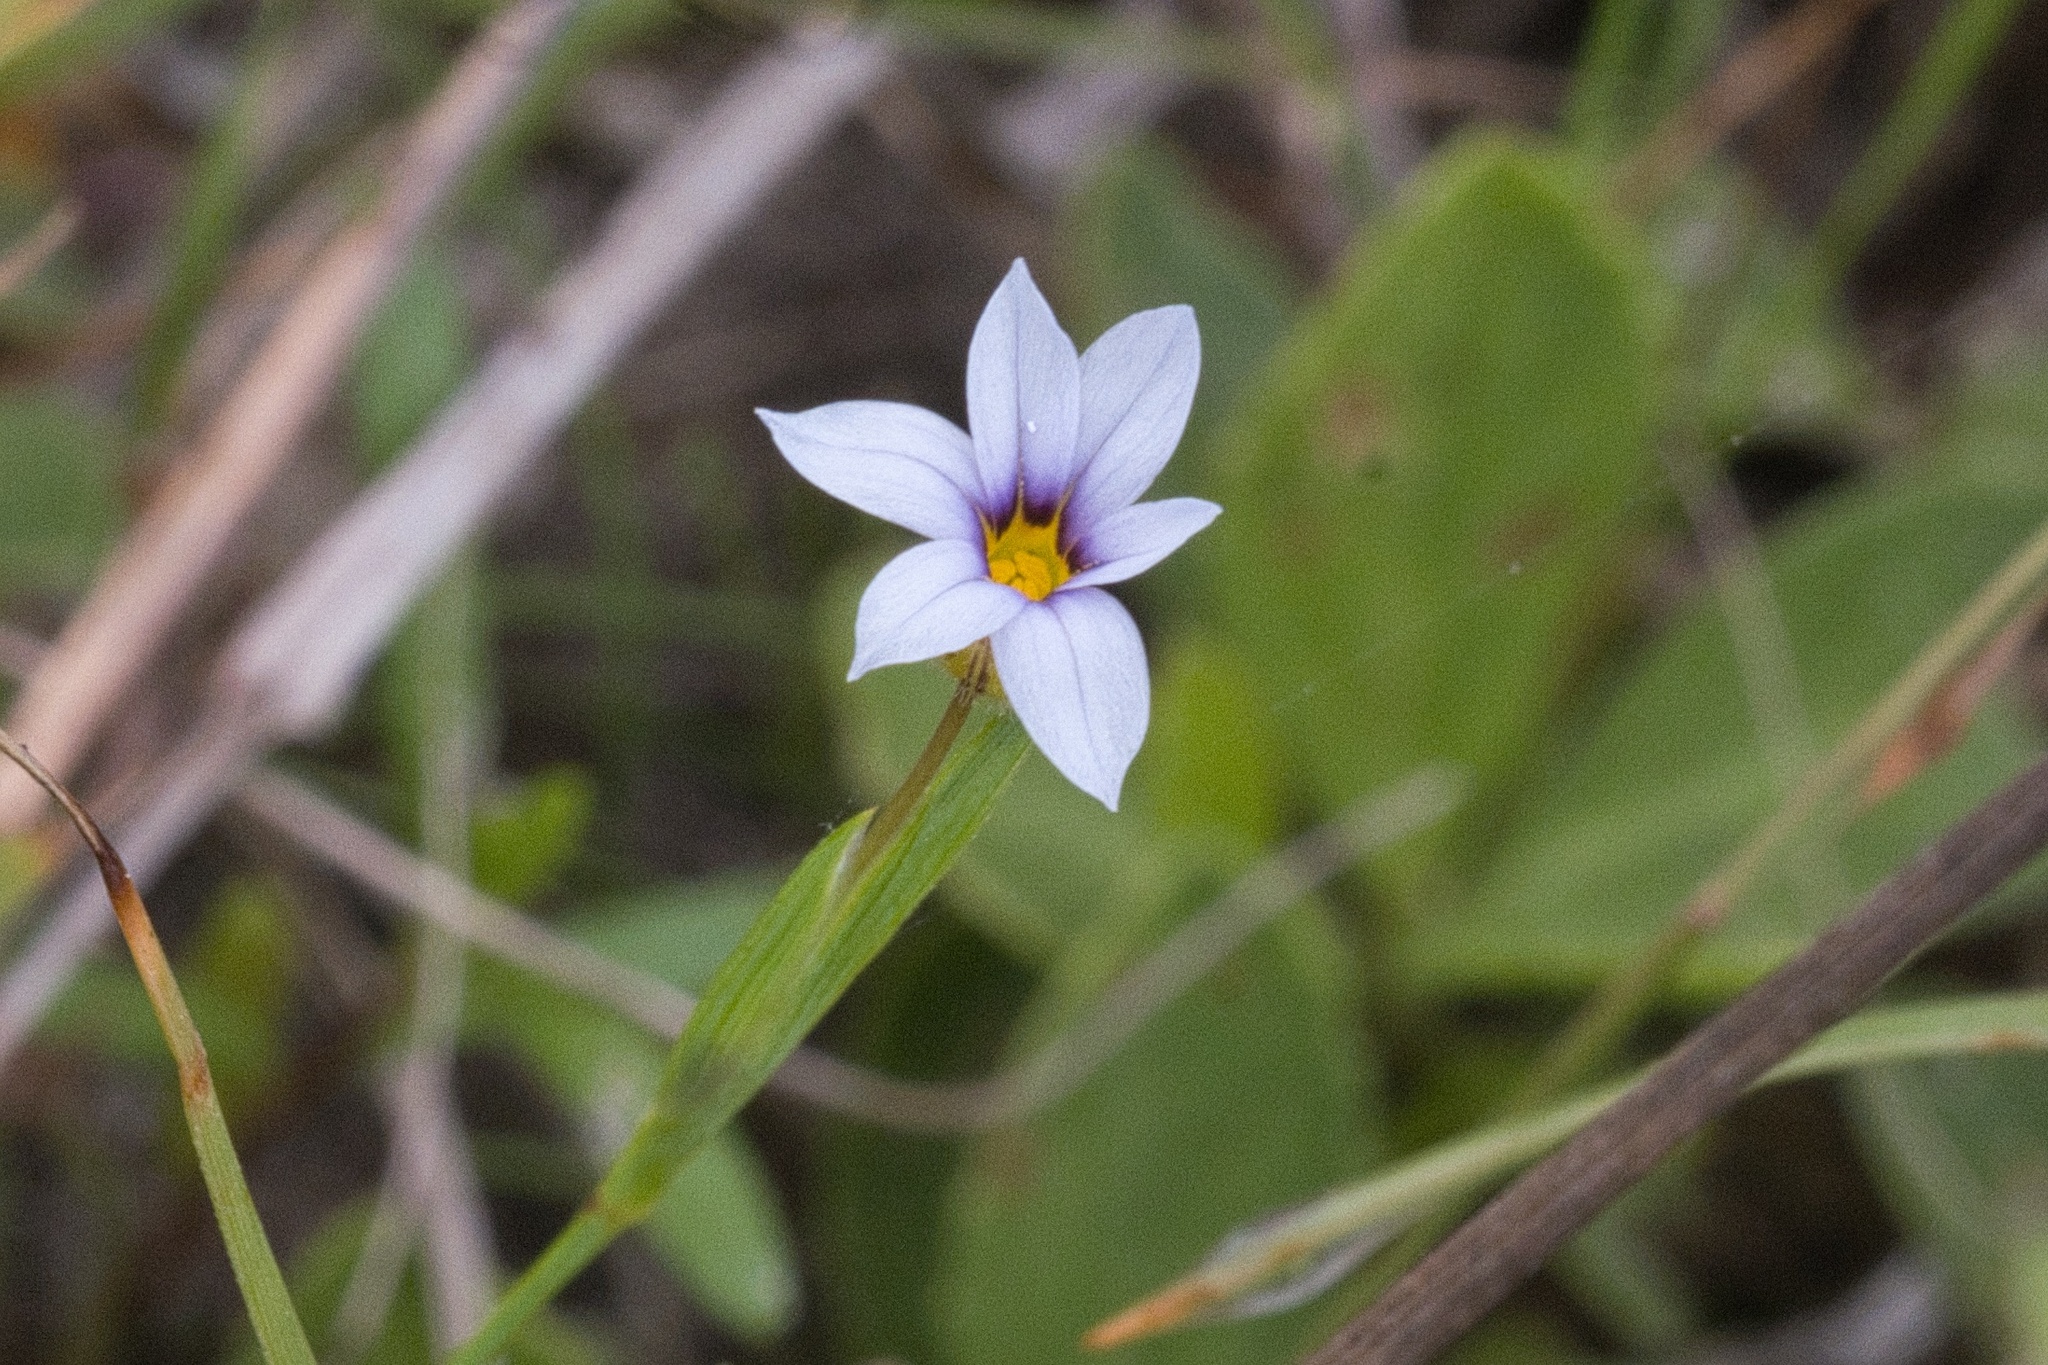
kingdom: Plantae
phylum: Tracheophyta
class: Liliopsida
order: Asparagales
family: Iridaceae
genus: Sisyrinchium
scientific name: Sisyrinchium micranthum
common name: Bermuda pigroot
